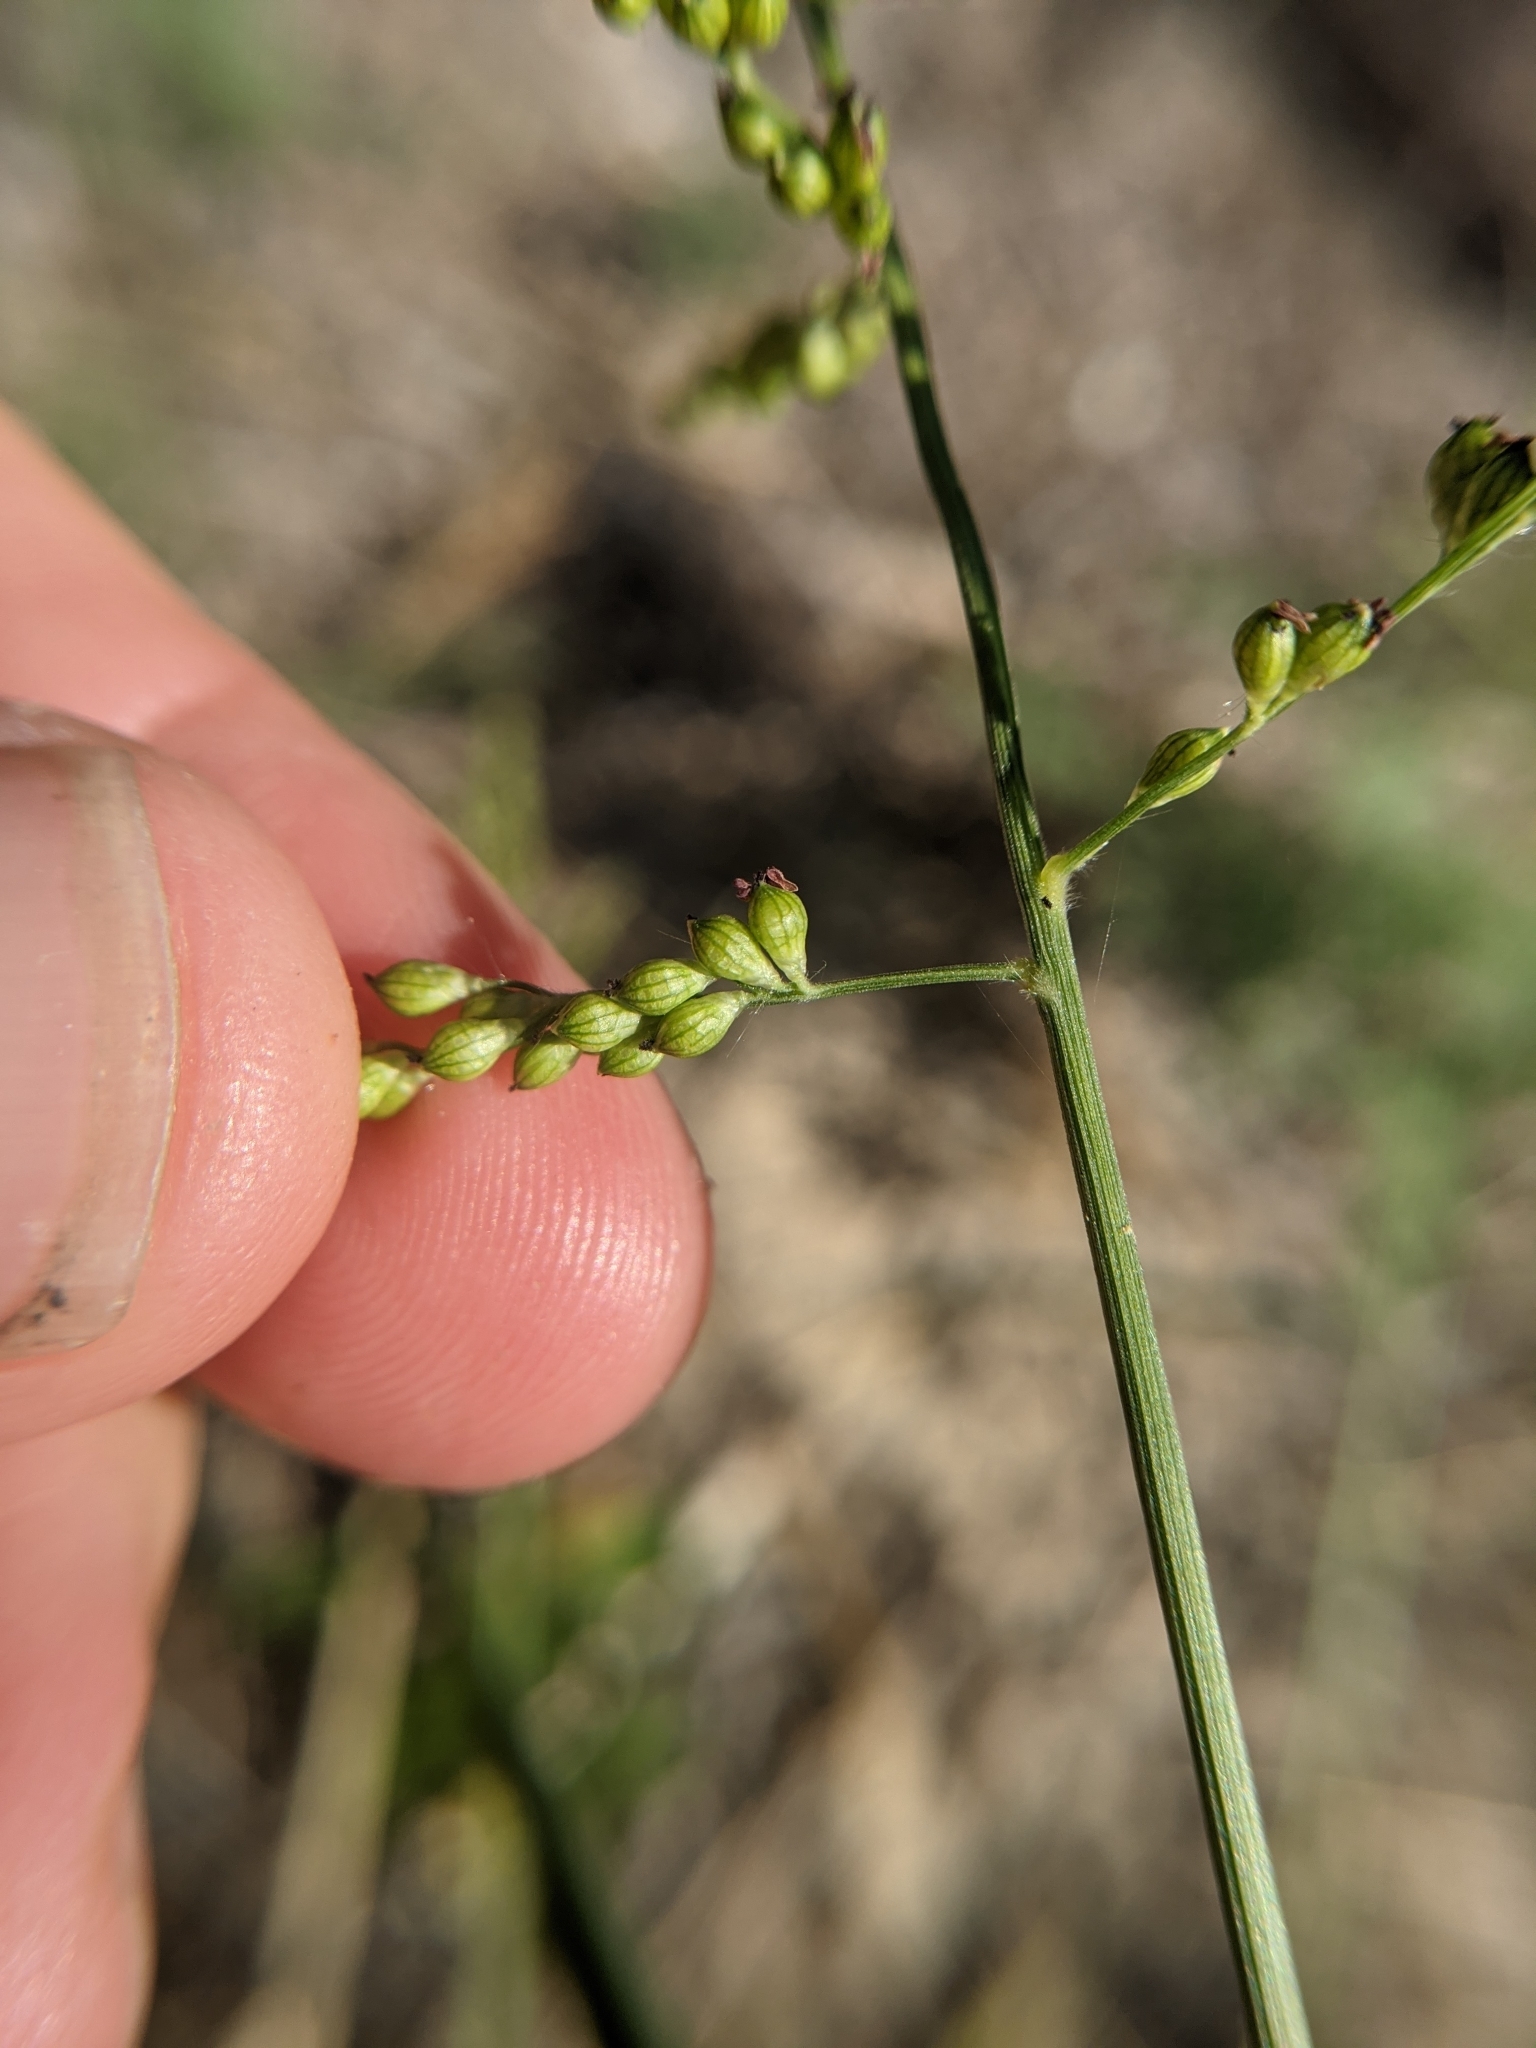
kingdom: Plantae
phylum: Tracheophyta
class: Liliopsida
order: Poales
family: Poaceae
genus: Urochloa
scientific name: Urochloa fusca
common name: Browntop signal grass
